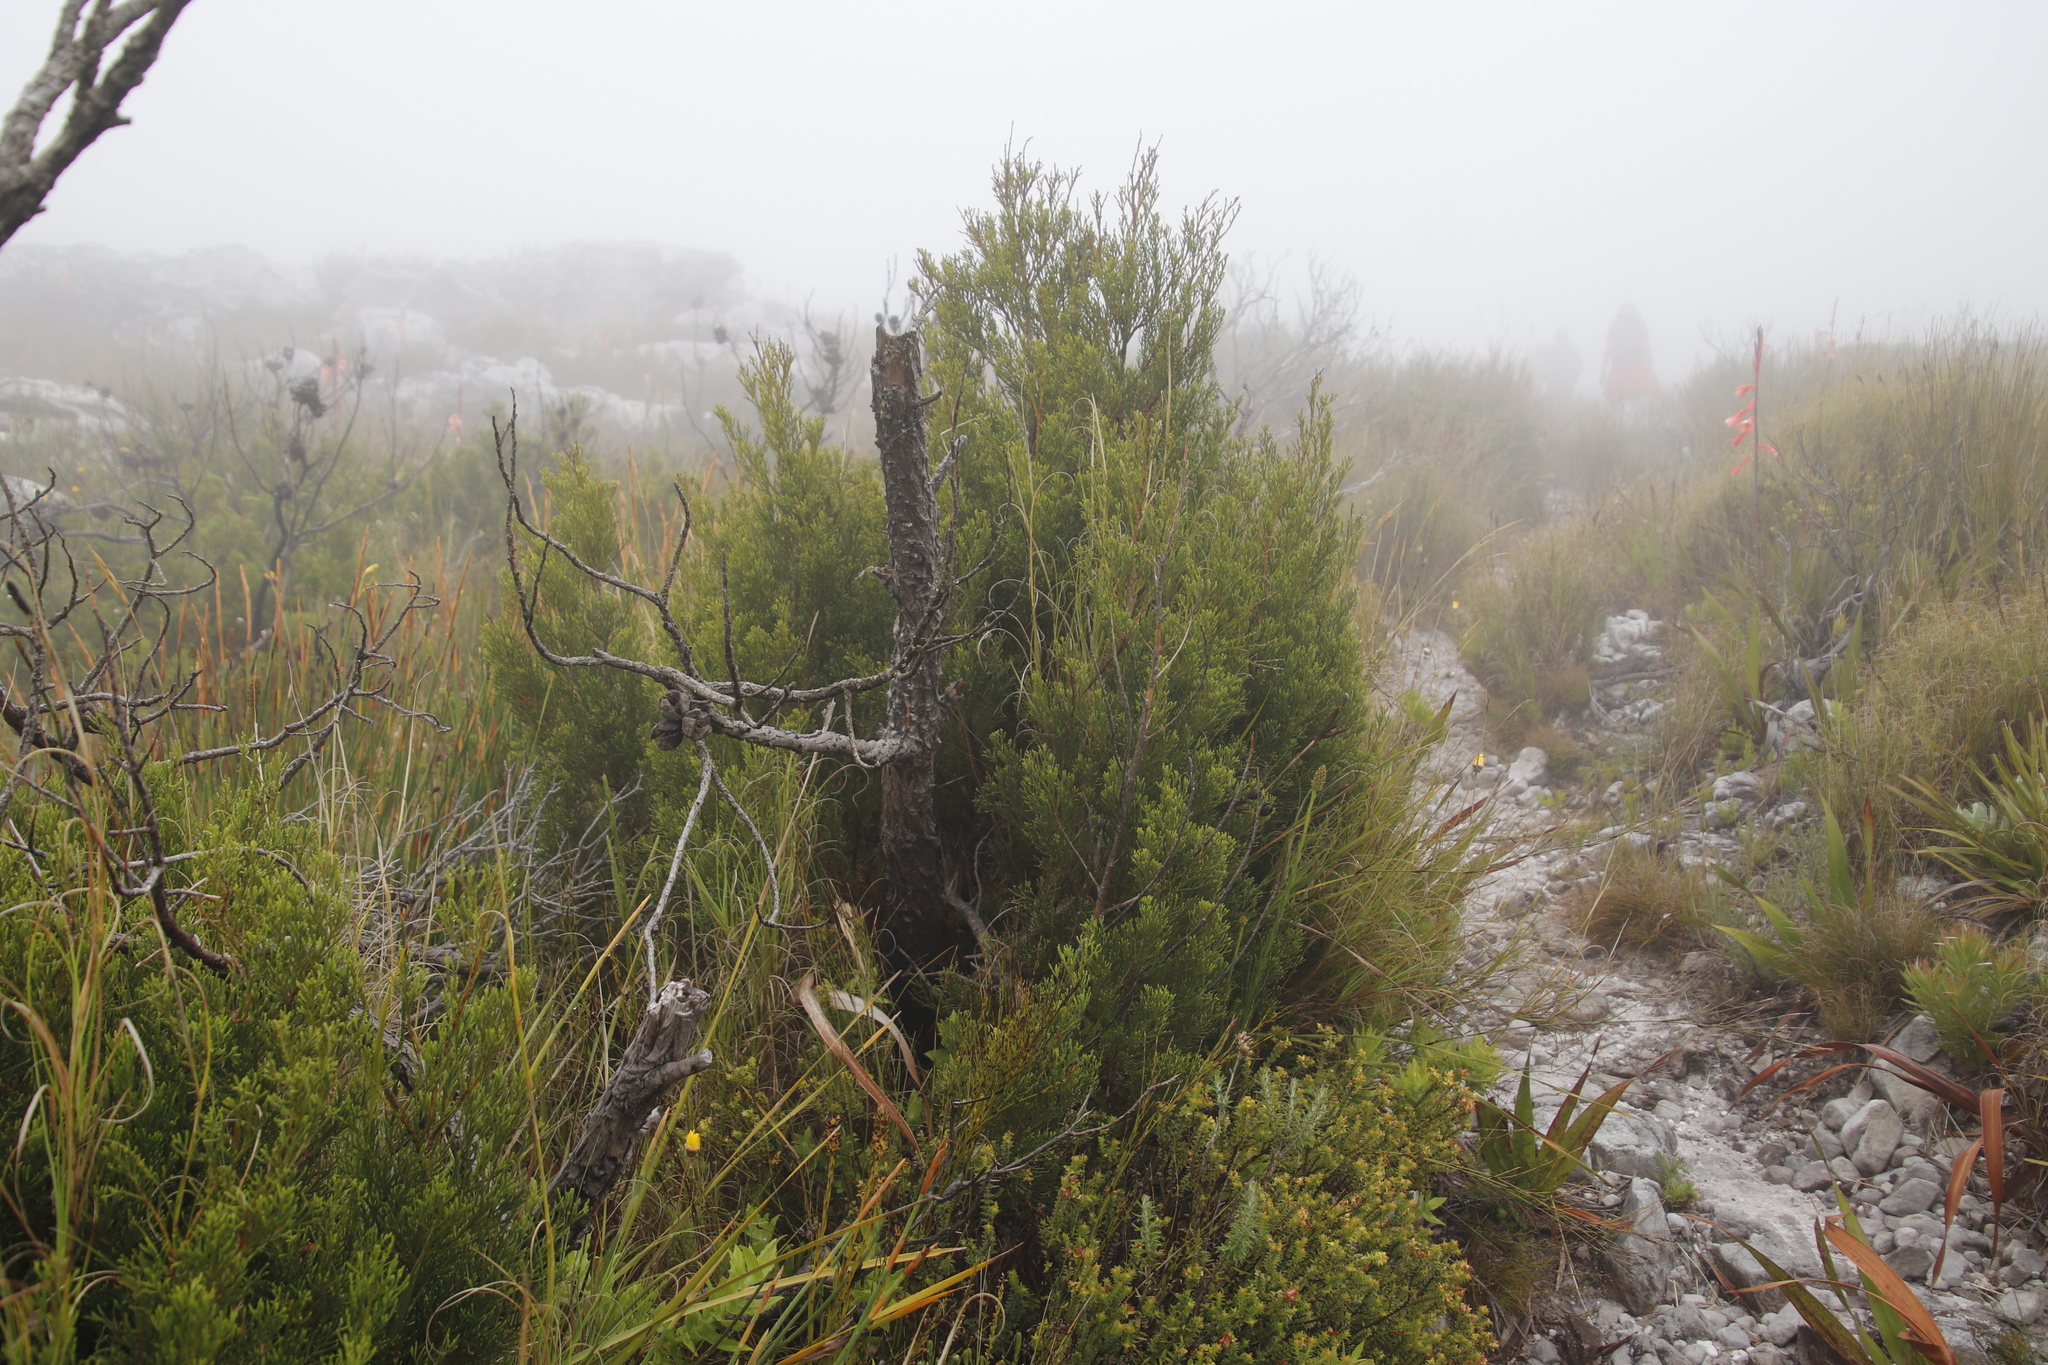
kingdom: Plantae
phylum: Tracheophyta
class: Pinopsida
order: Pinales
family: Cupressaceae
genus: Widdringtonia
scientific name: Widdringtonia nodiflora
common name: Cape cypress
